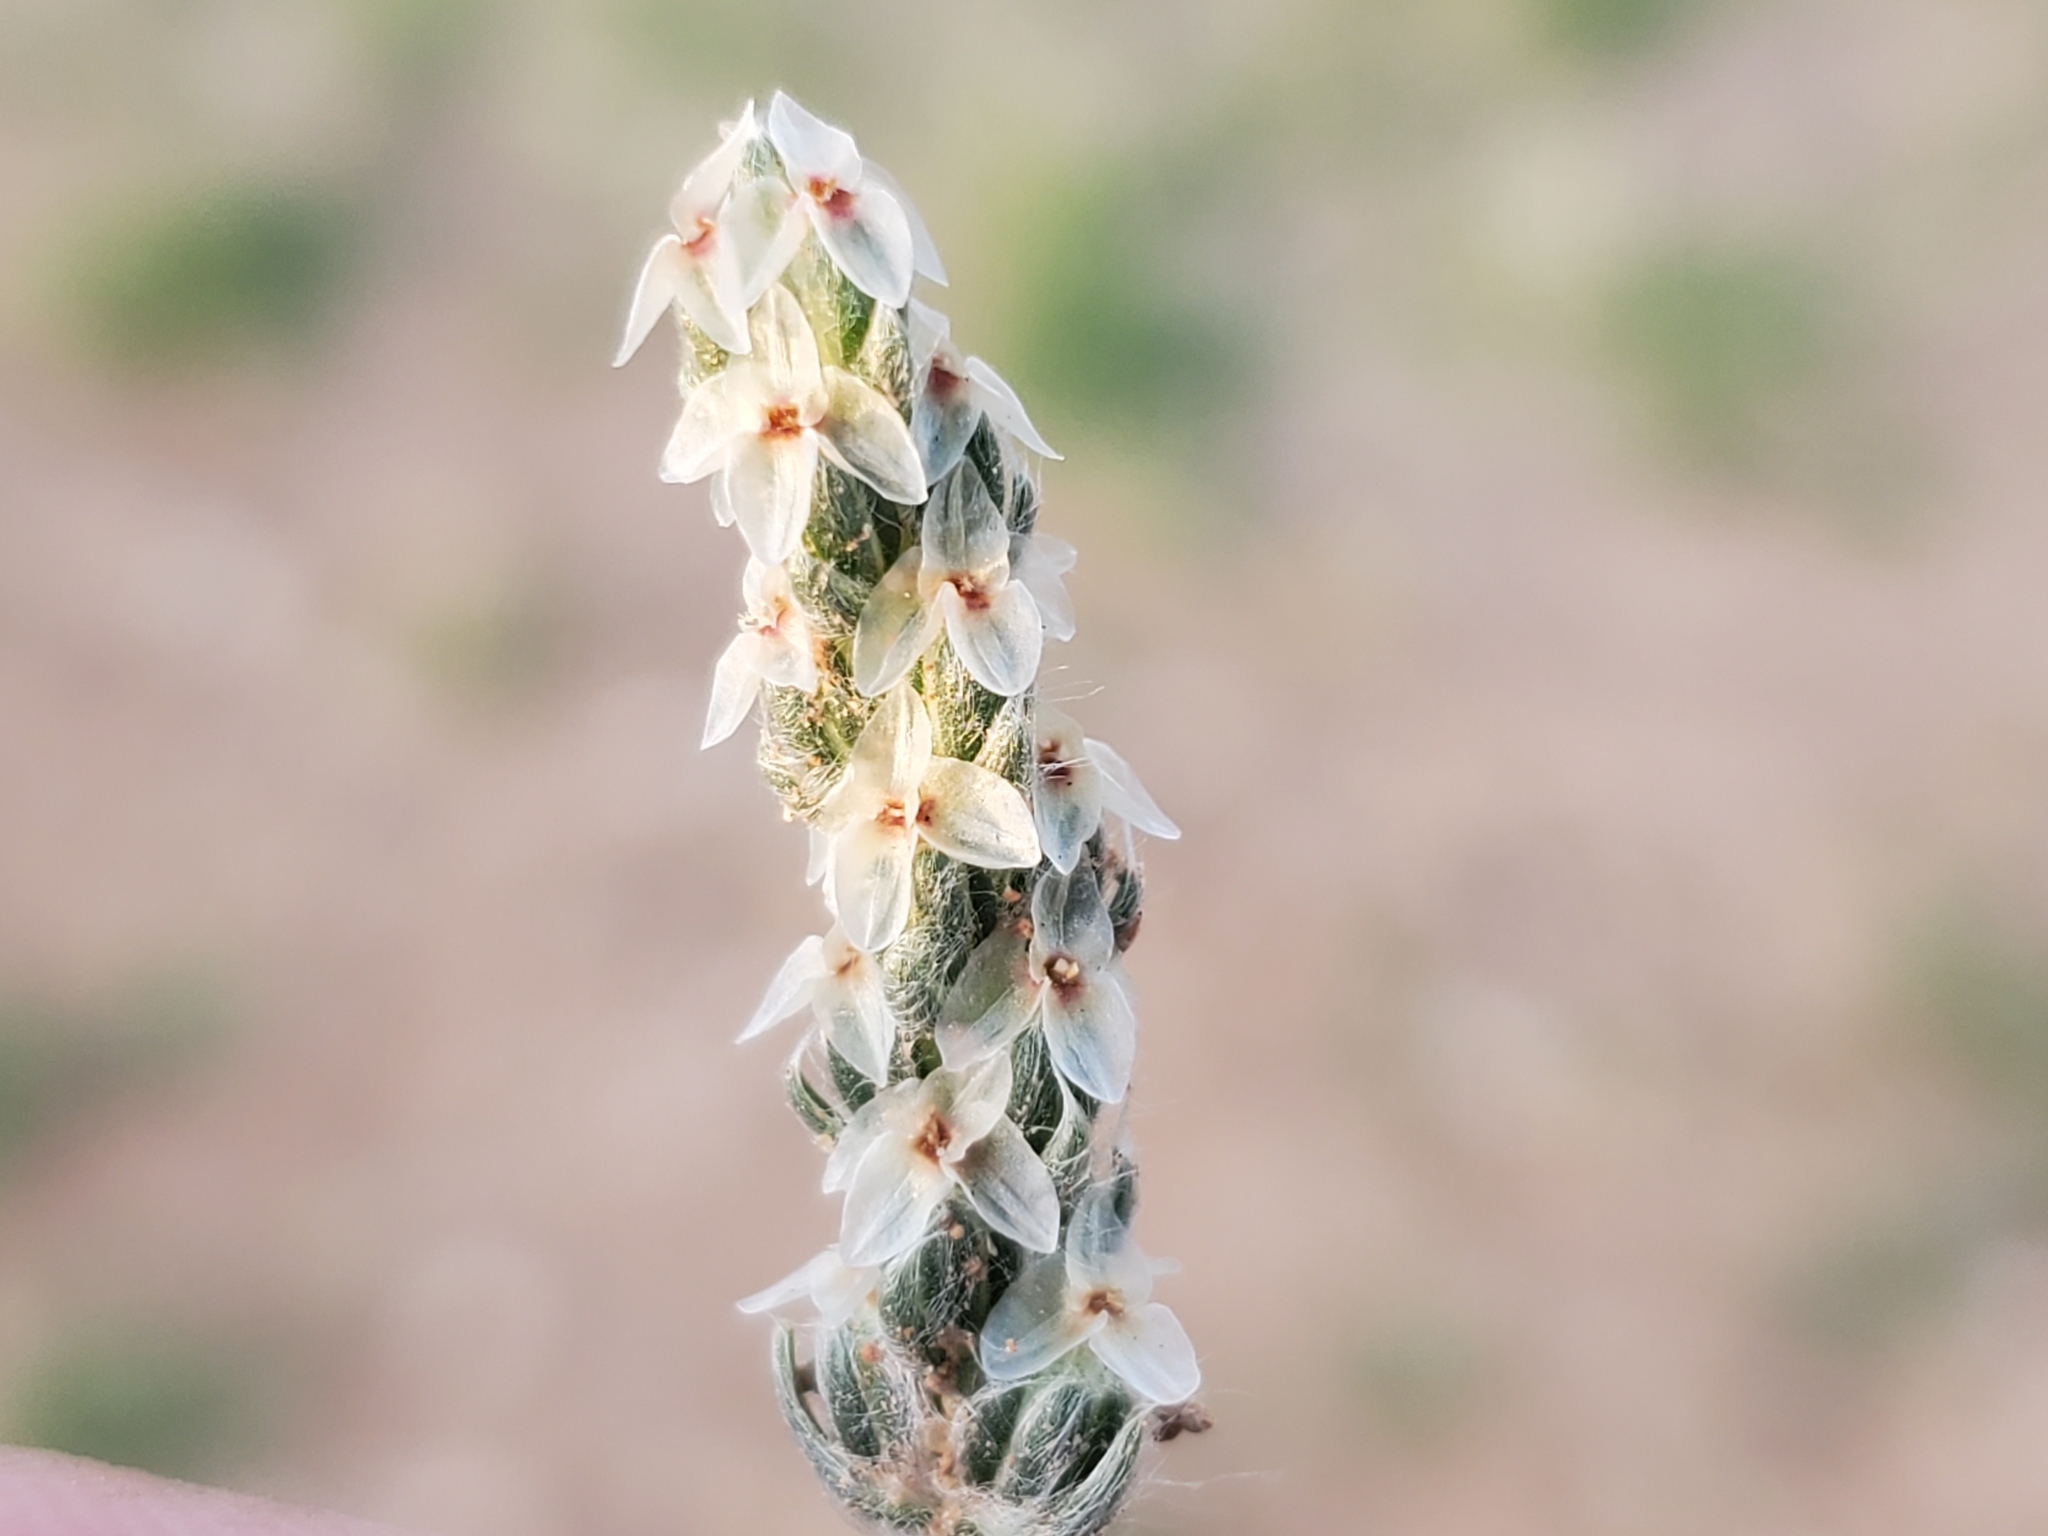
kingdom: Plantae
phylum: Tracheophyta
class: Magnoliopsida
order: Lamiales
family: Plantaginaceae
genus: Plantago
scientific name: Plantago patagonica
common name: Patagonia indian-wheat
